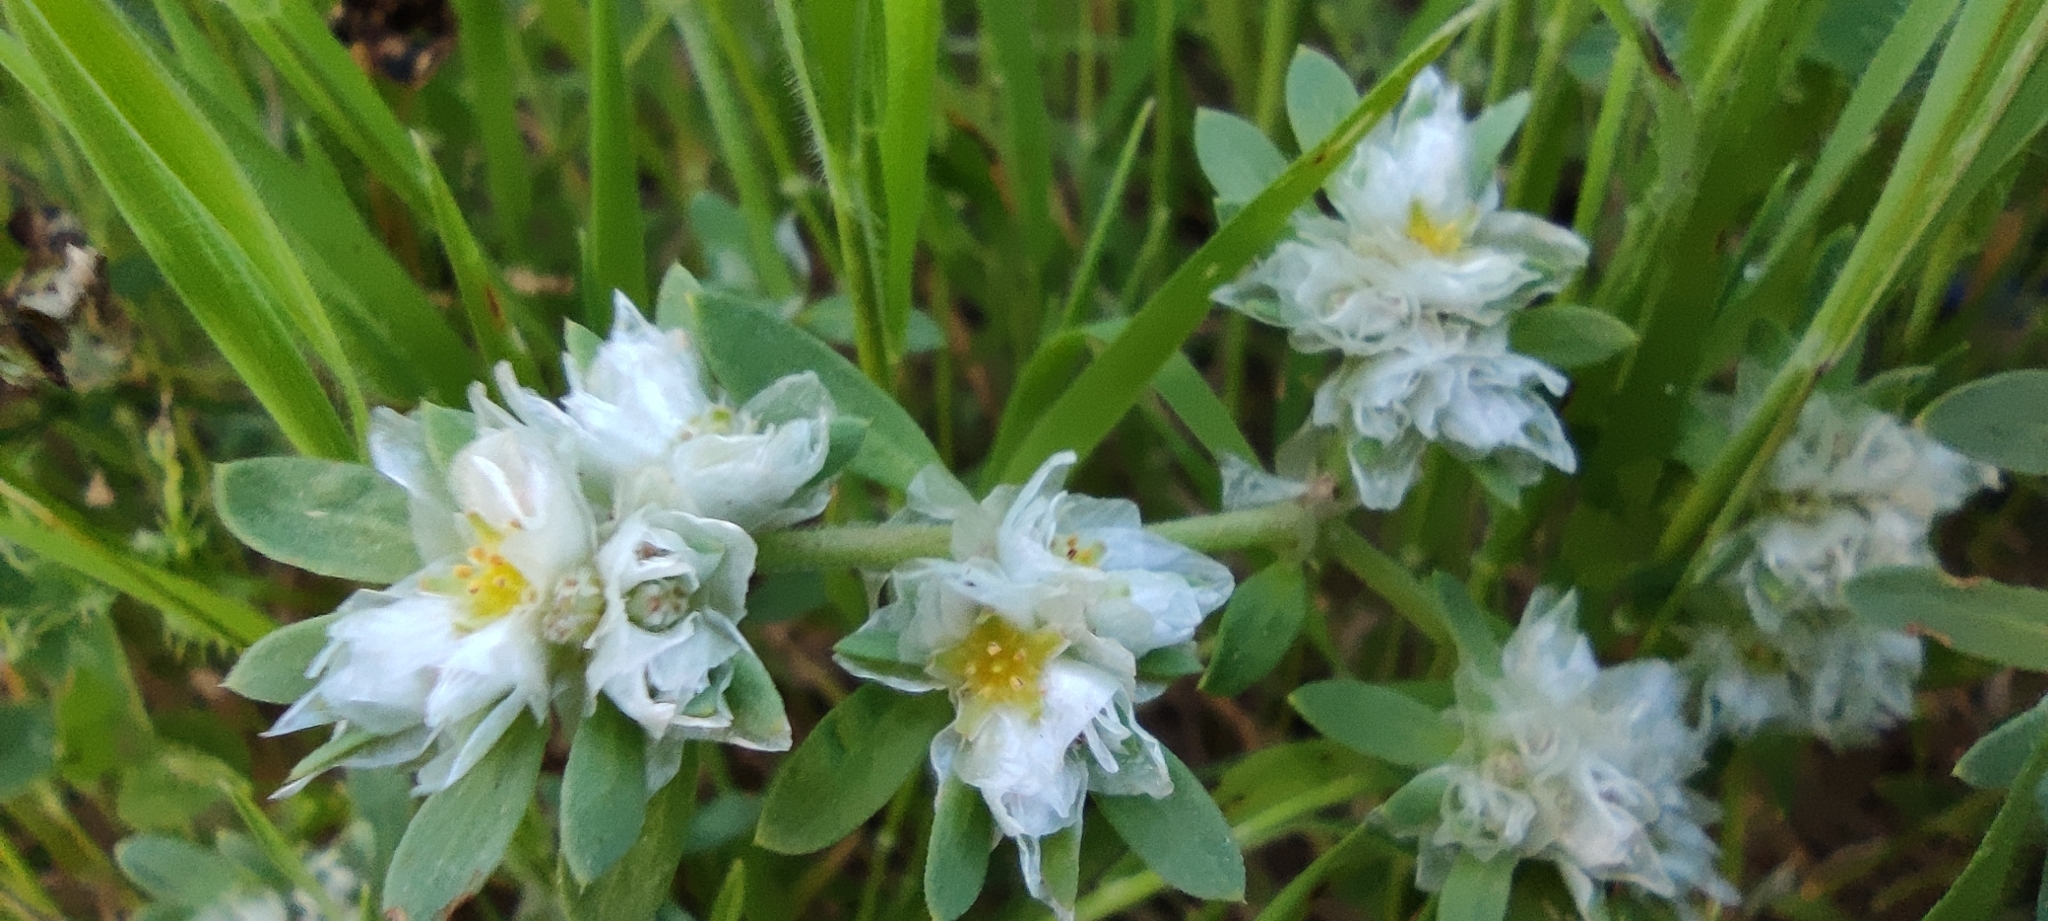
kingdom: Plantae
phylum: Tracheophyta
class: Magnoliopsida
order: Caryophyllales
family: Caryophyllaceae
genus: Paronychia
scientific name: Paronychia argentea
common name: Silver nailroot
